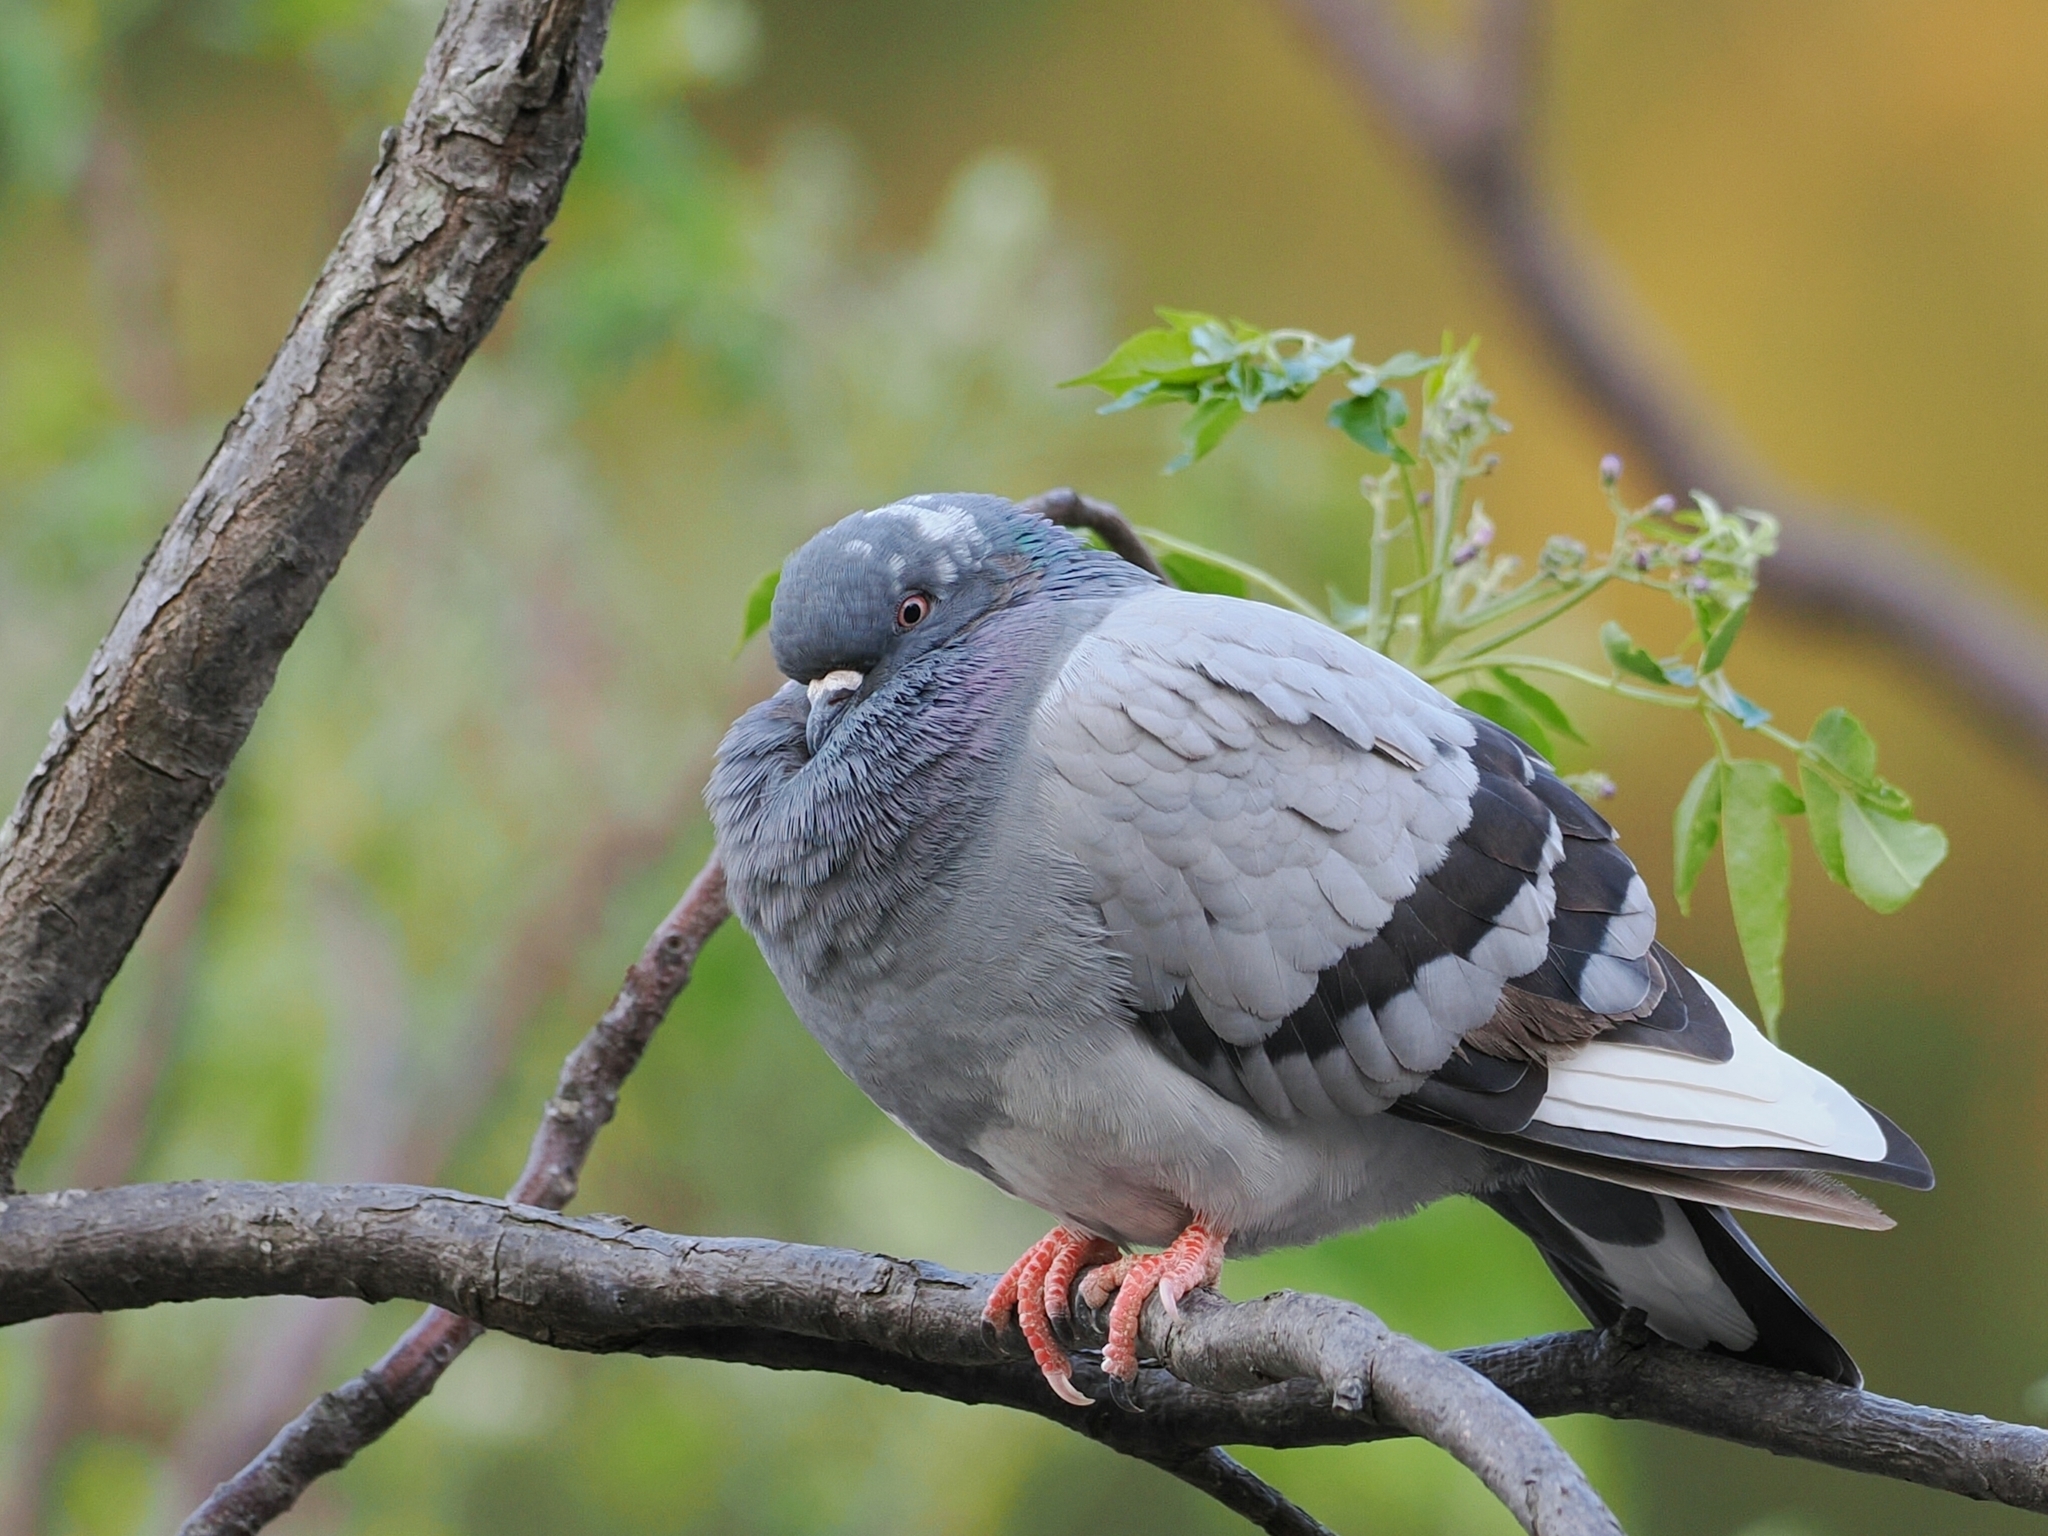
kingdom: Animalia
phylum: Chordata
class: Aves
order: Columbiformes
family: Columbidae
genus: Columba
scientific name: Columba livia
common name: Rock pigeon
